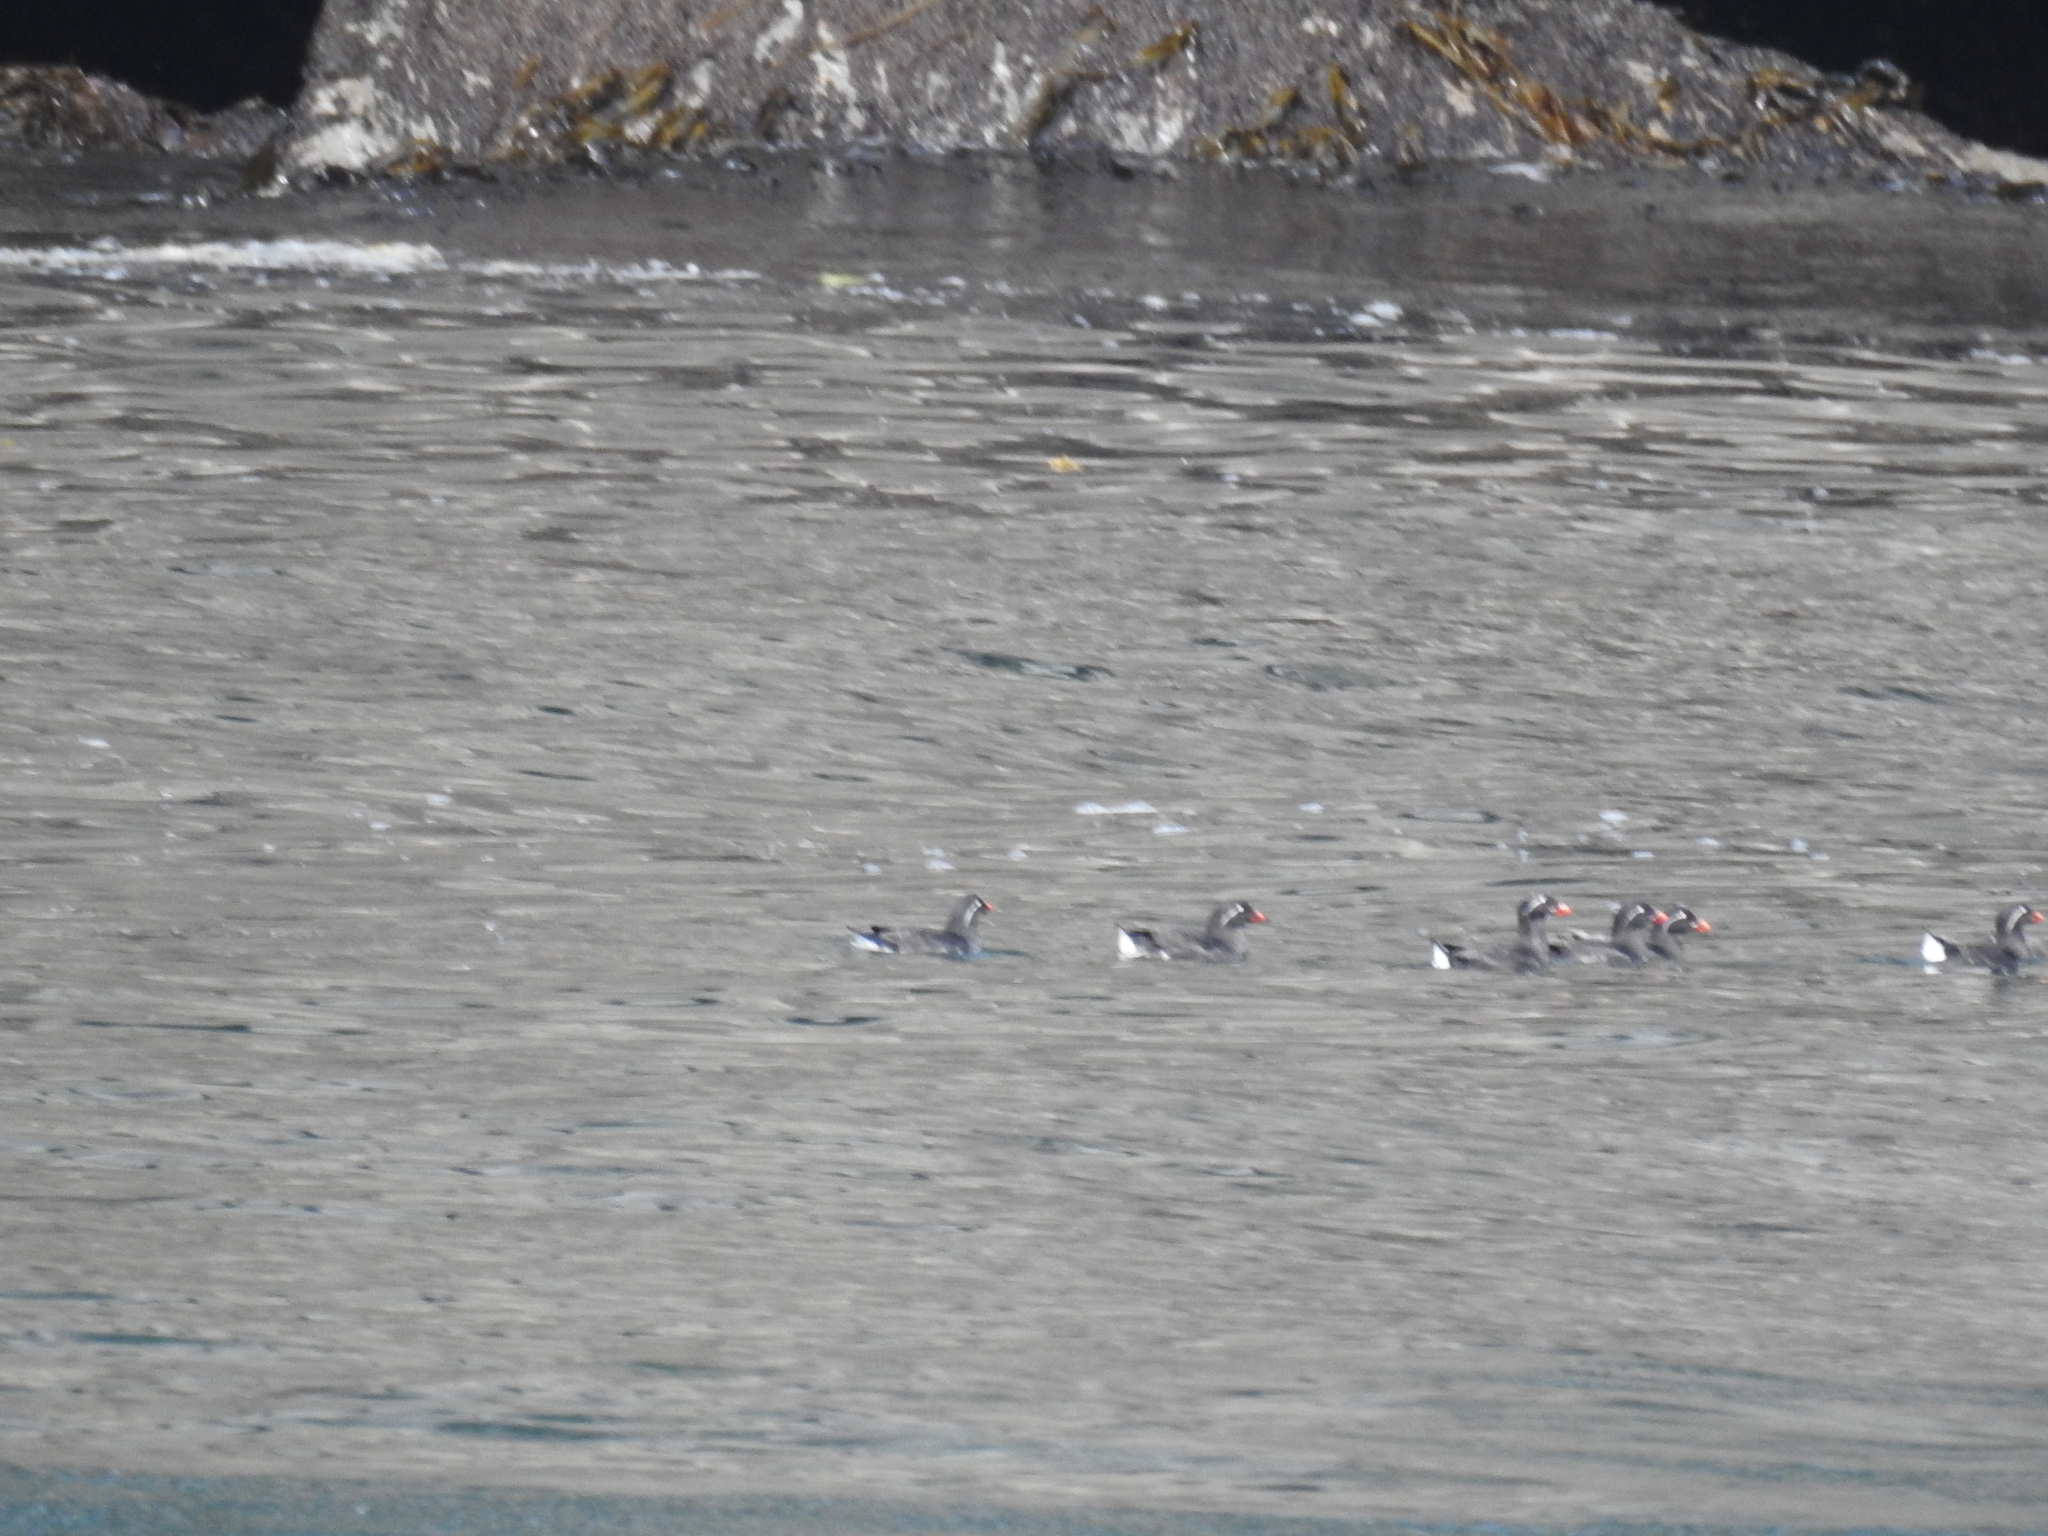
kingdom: Animalia
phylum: Chordata
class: Aves
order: Charadriiformes
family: Alcidae
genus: Aethia
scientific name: Aethia psittacula
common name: Parakeet auklet
